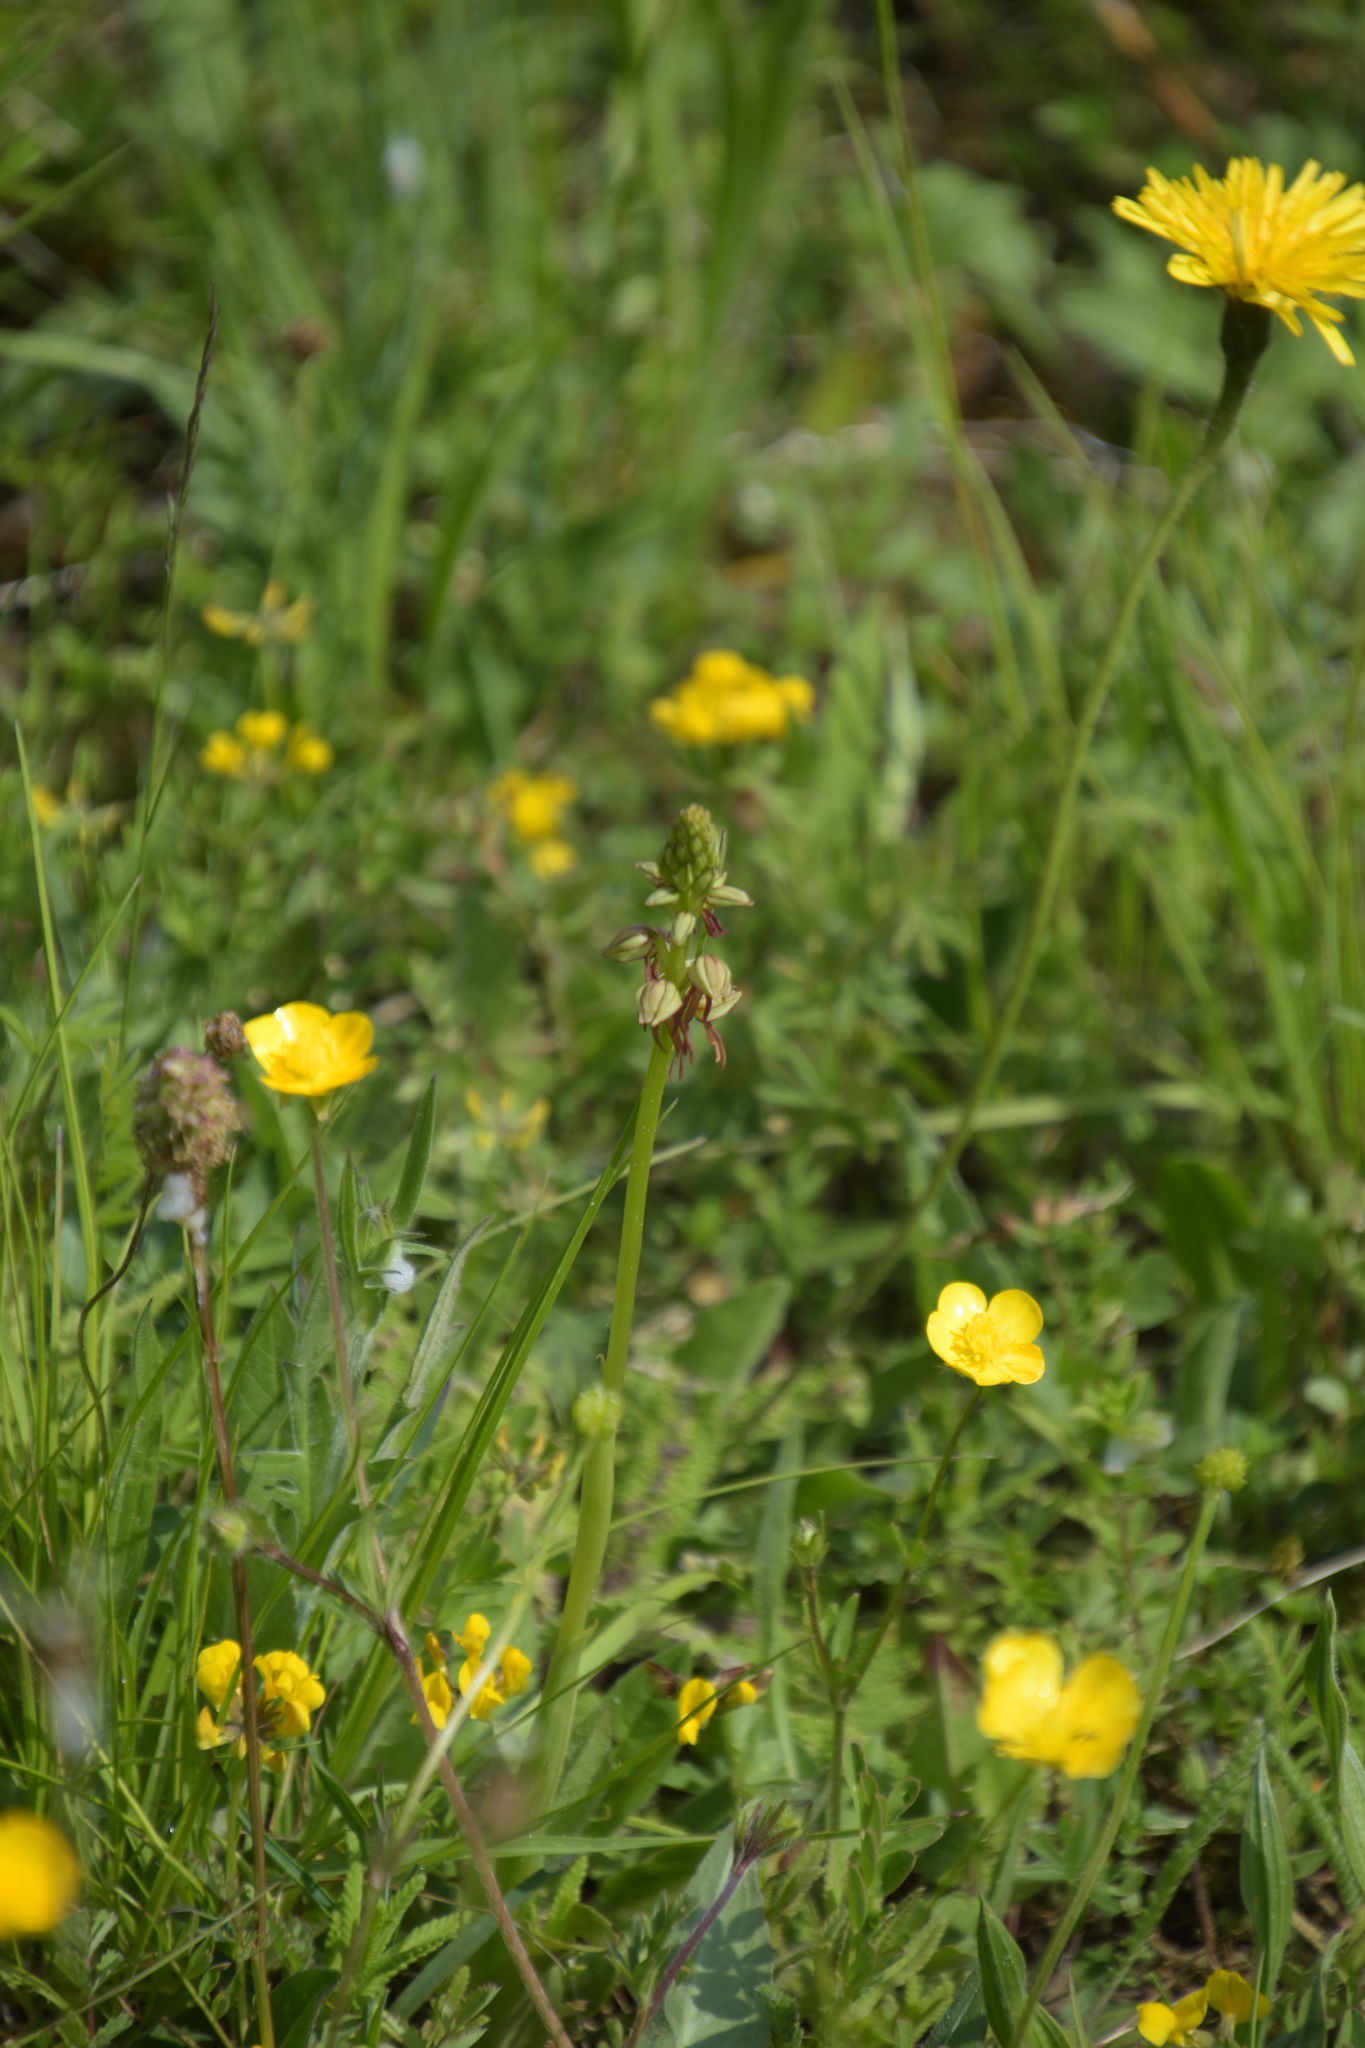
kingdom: Plantae
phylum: Tracheophyta
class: Liliopsida
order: Asparagales
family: Orchidaceae
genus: Orchis
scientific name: Orchis anthropophora
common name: Man orchid
